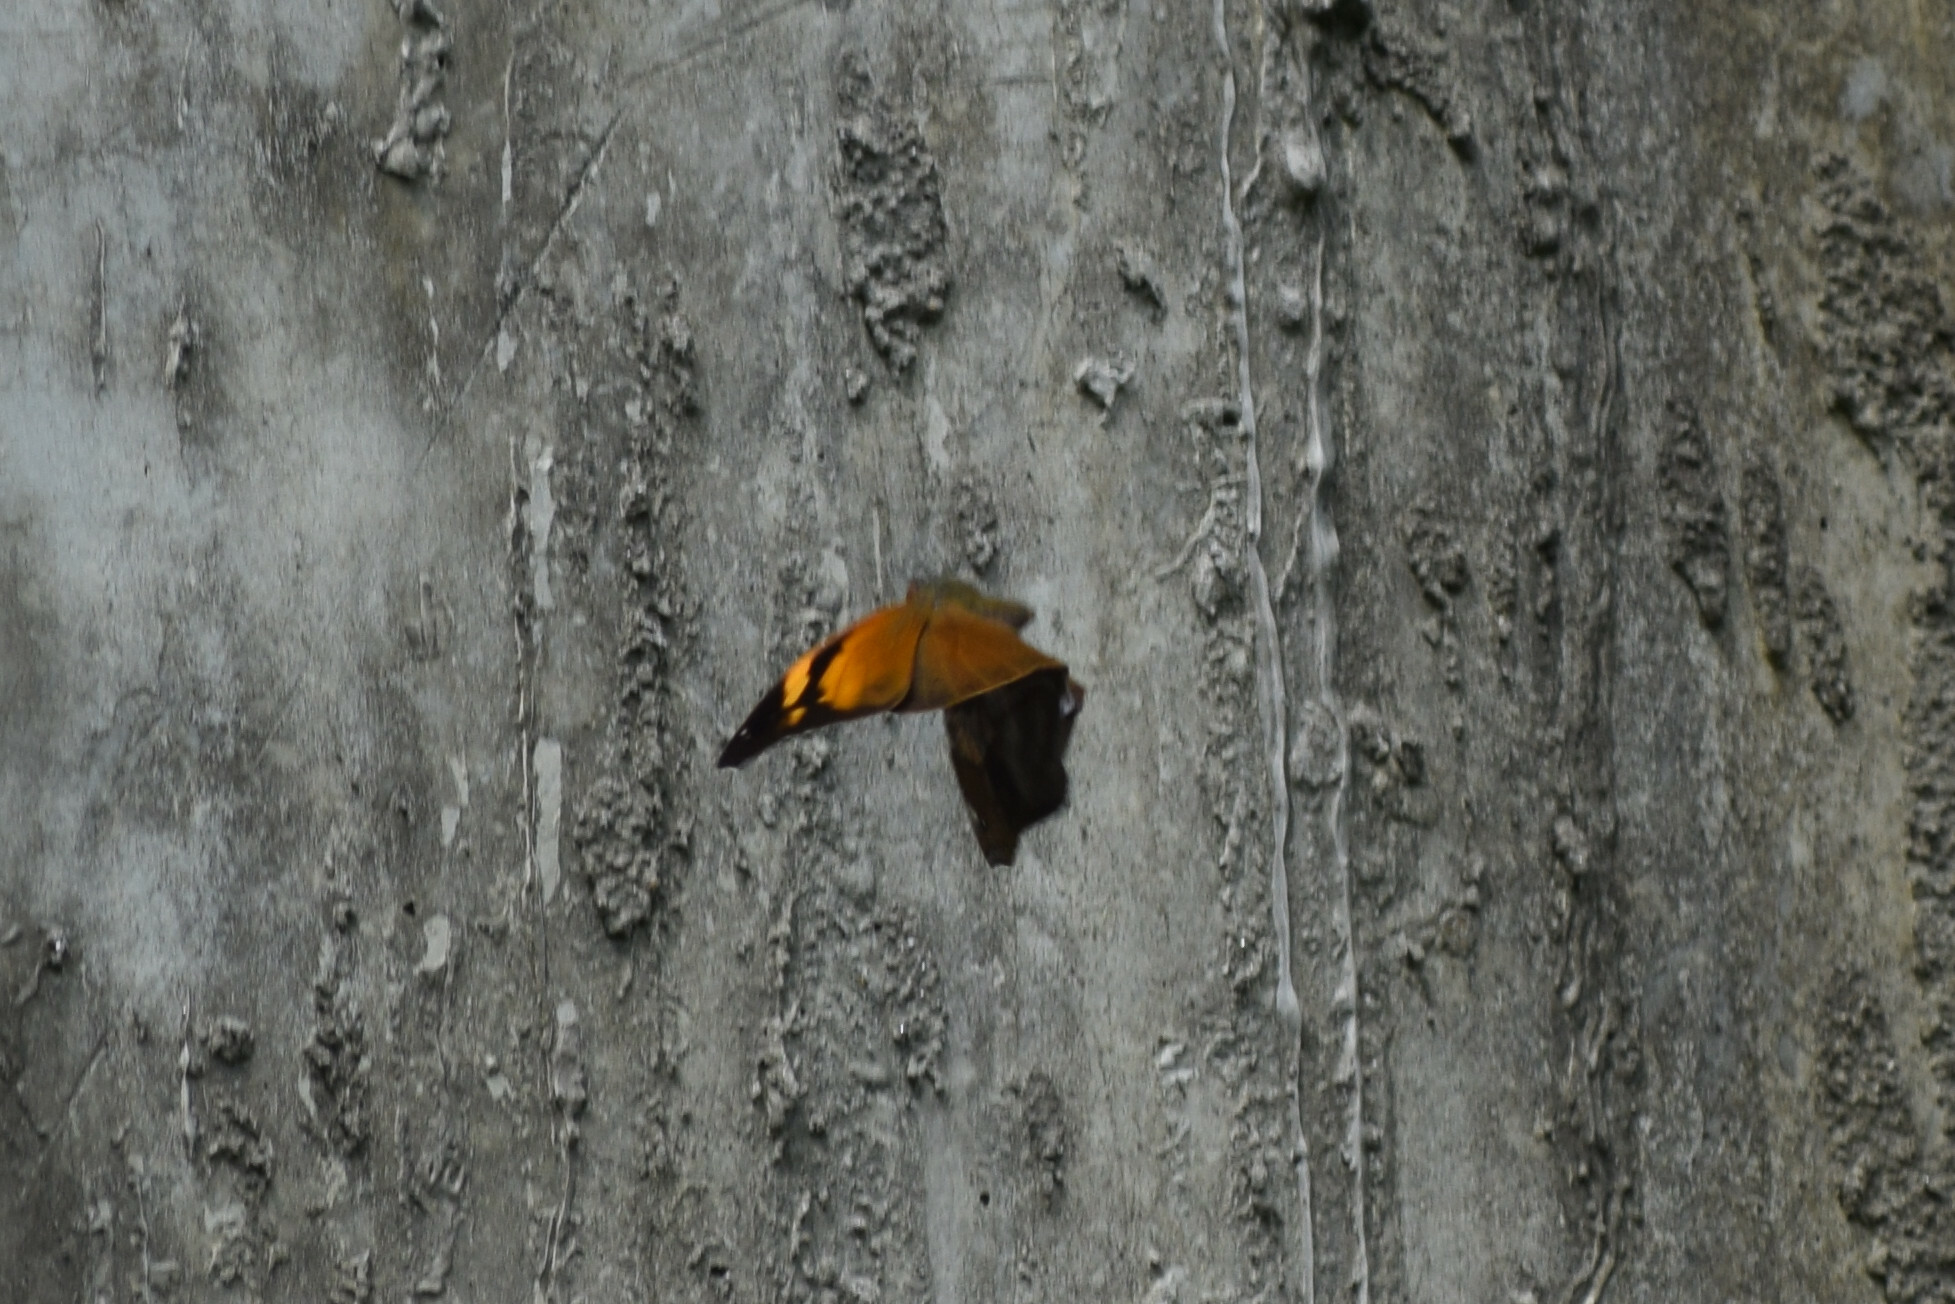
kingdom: Animalia
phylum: Arthropoda
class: Insecta
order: Lepidoptera
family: Nymphalidae
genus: Doleschallia
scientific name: Doleschallia bisaltide
